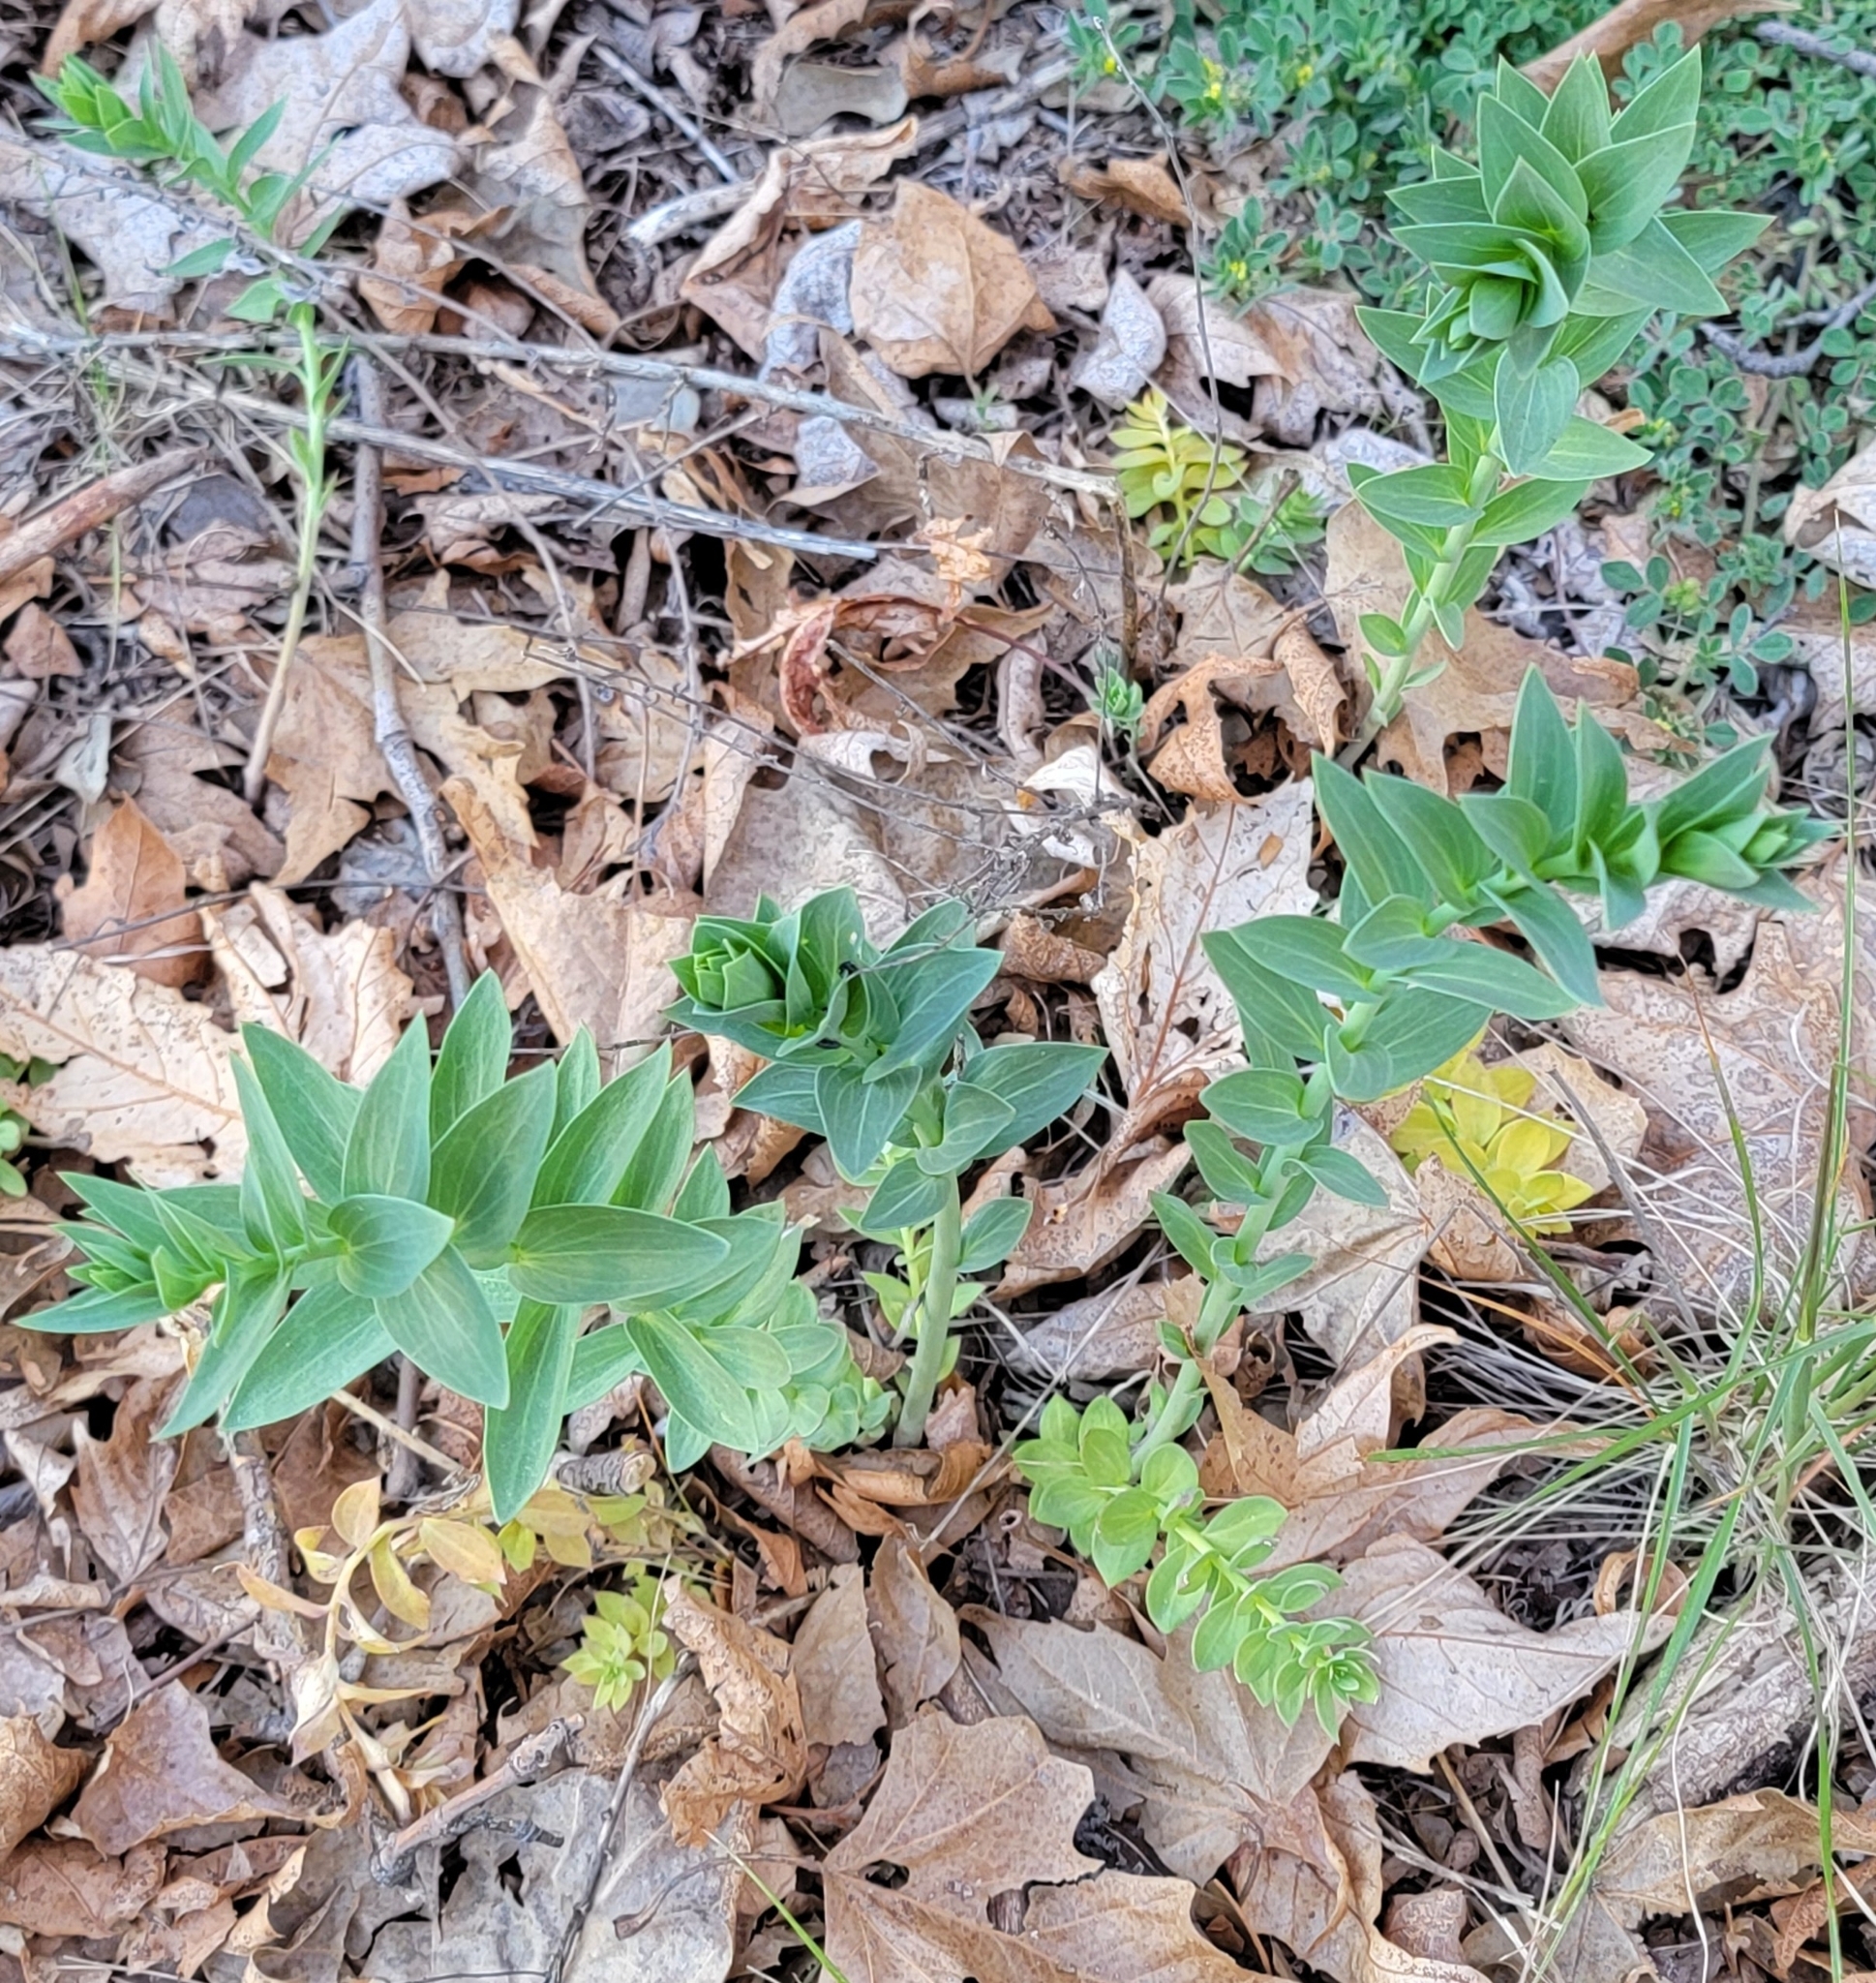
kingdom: Plantae
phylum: Tracheophyta
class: Magnoliopsida
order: Lamiales
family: Plantaginaceae
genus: Linaria
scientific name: Linaria dalmatica
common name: Dalmatian toadflax
